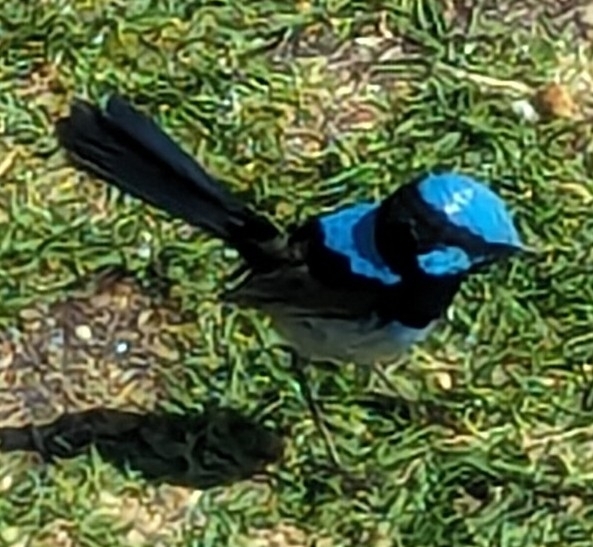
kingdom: Animalia
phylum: Chordata
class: Aves
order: Passeriformes
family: Maluridae
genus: Malurus
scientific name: Malurus cyaneus
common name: Superb fairywren
